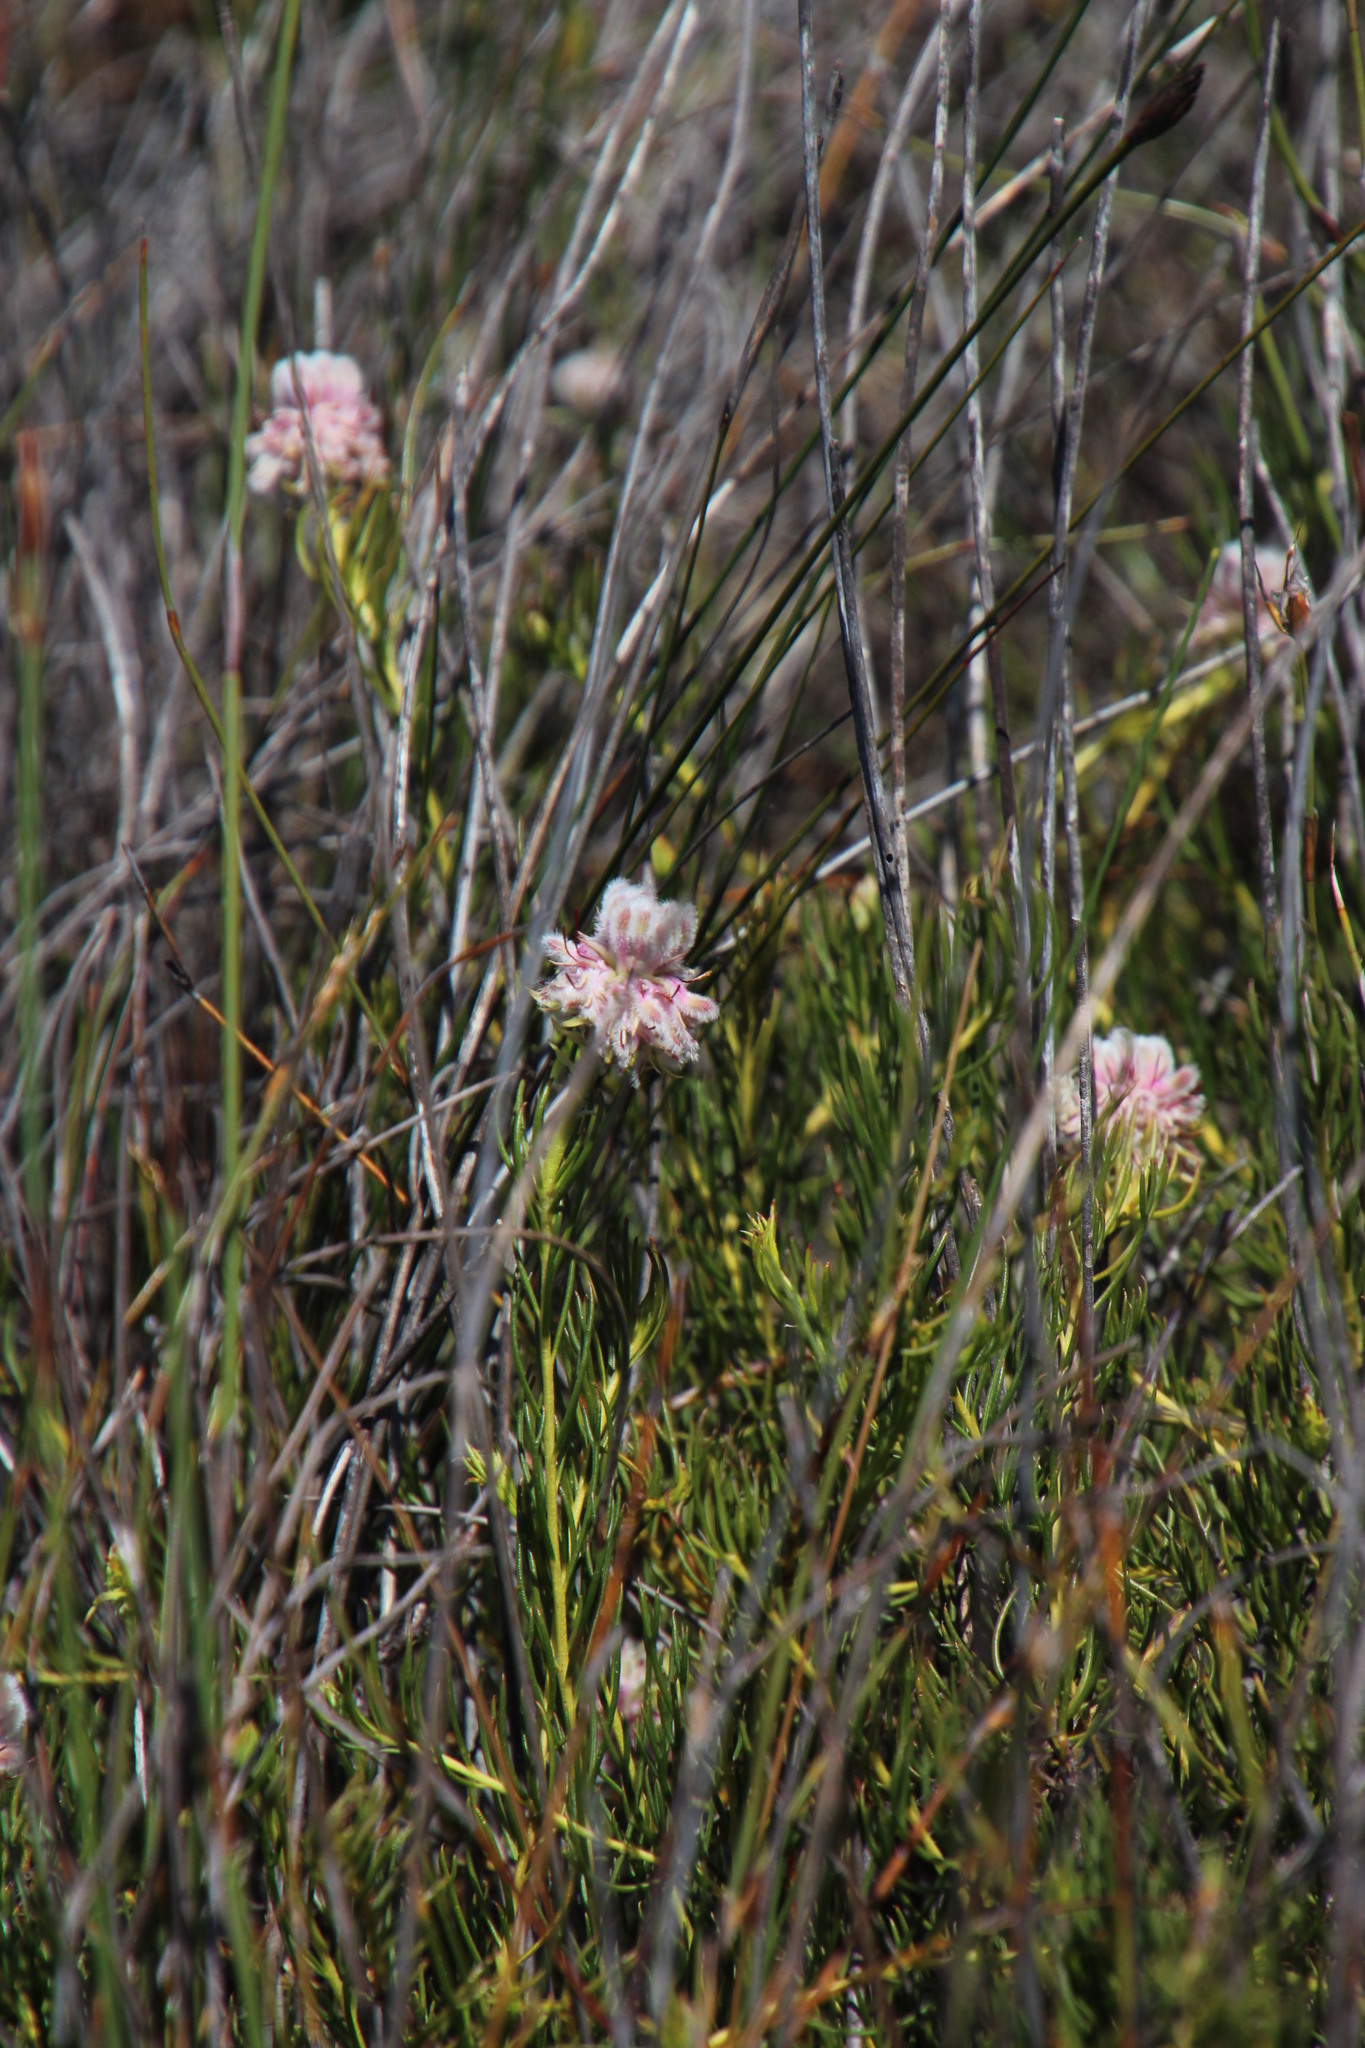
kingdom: Plantae
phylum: Tracheophyta
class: Magnoliopsida
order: Proteales
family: Proteaceae
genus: Serruria
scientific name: Serruria
